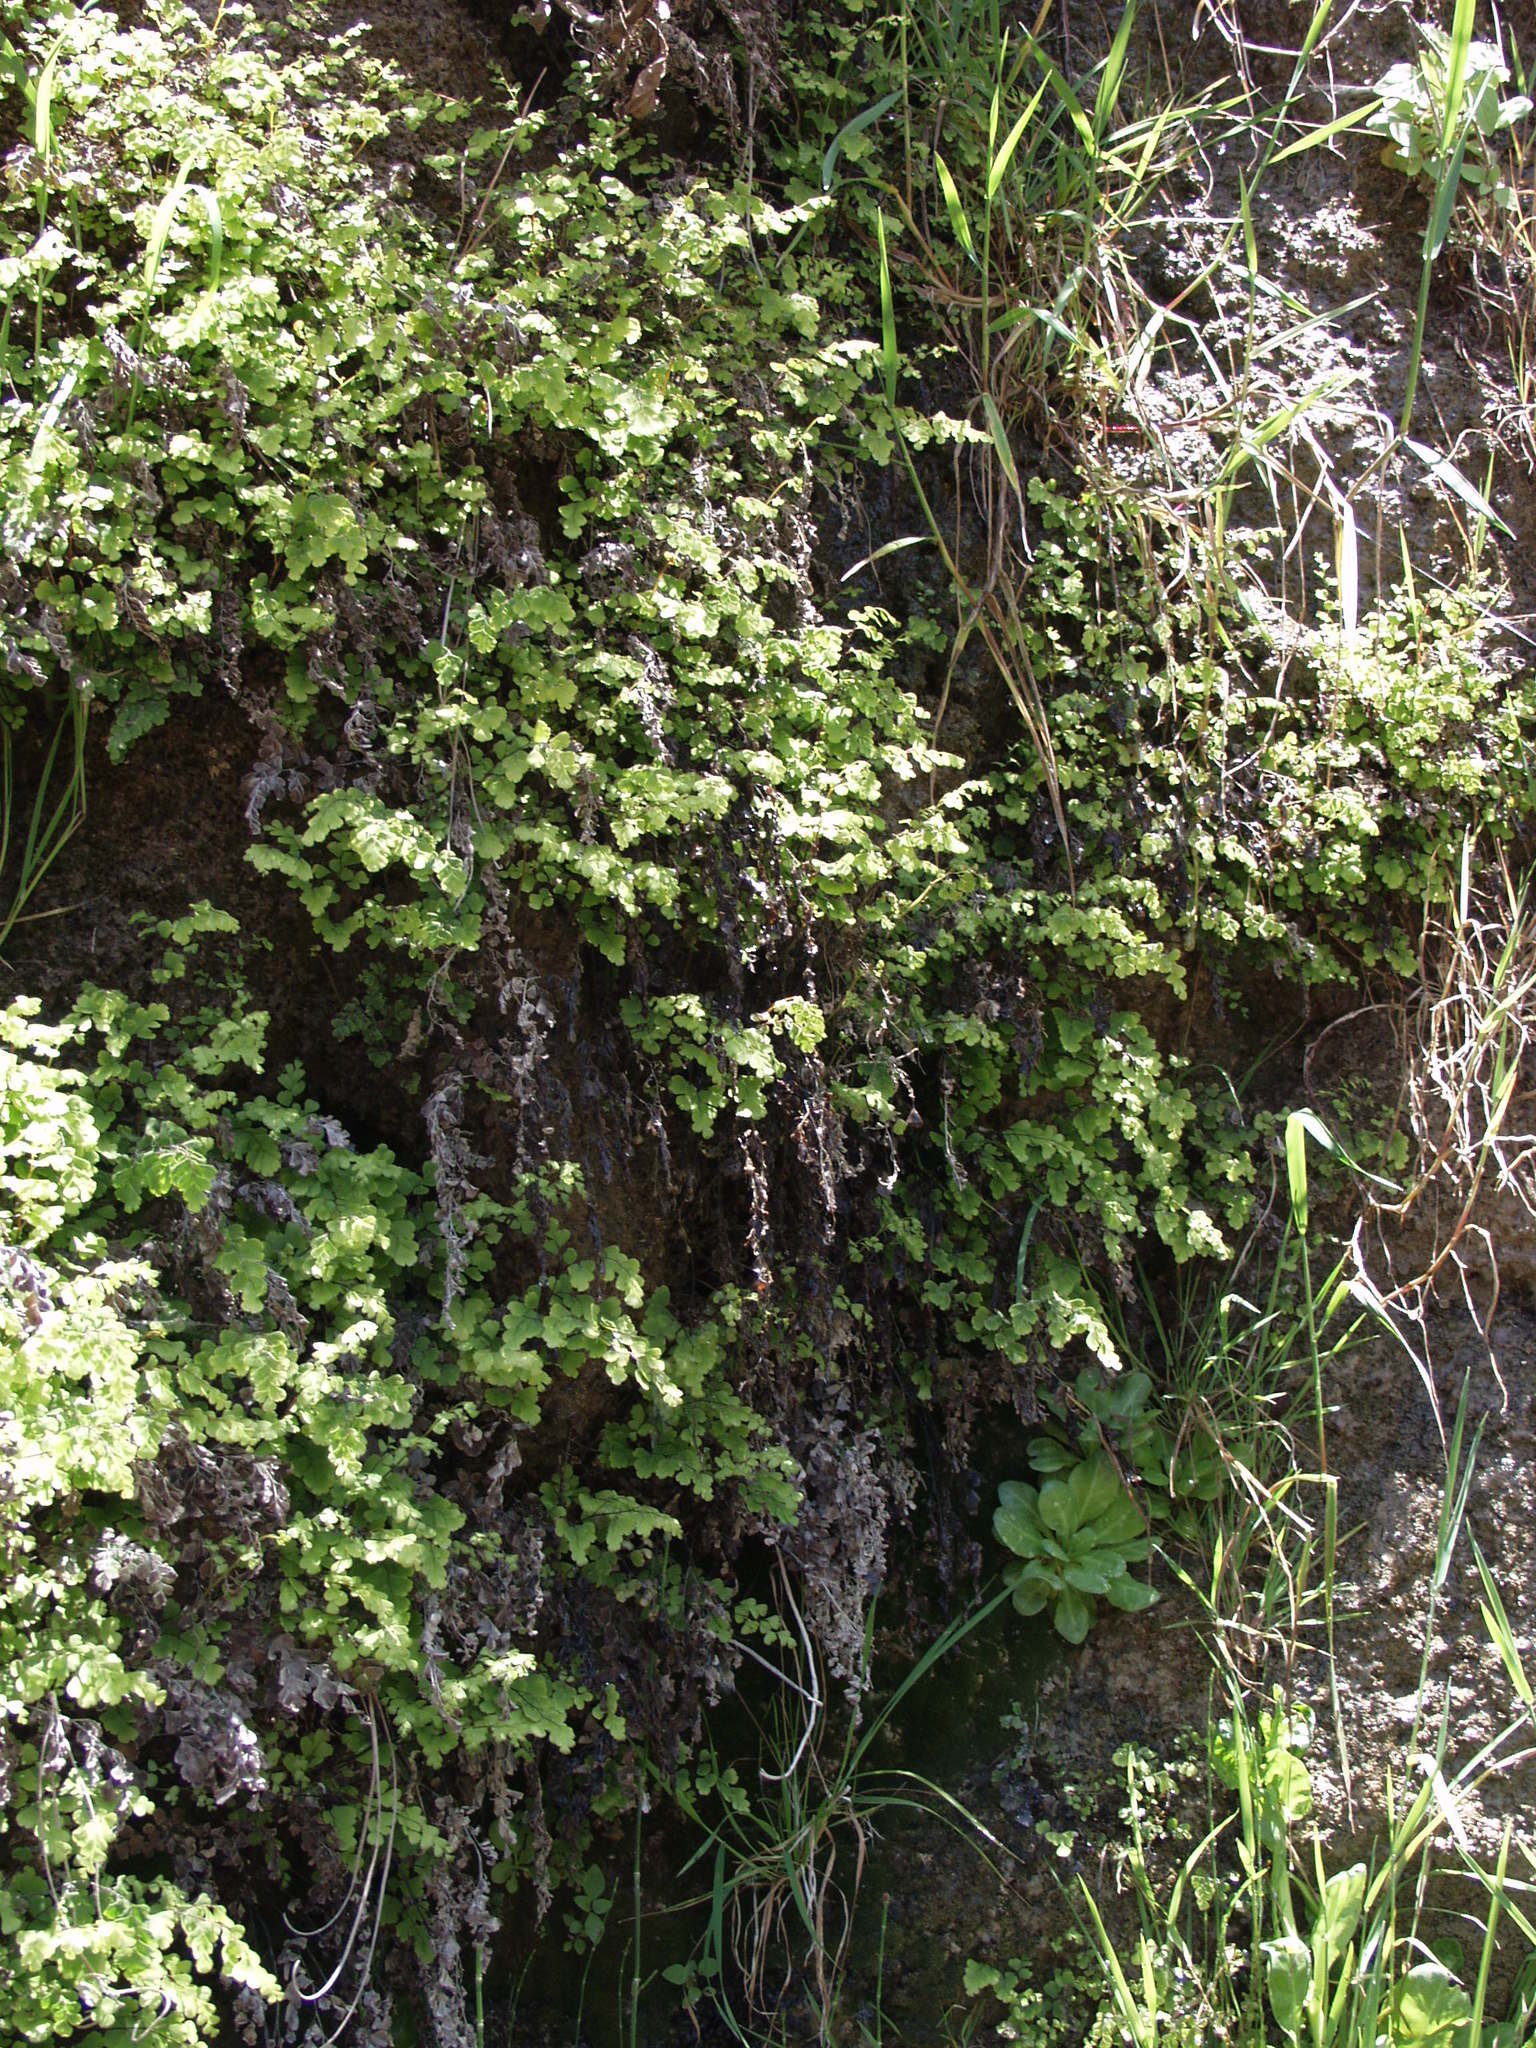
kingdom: Plantae
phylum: Tracheophyta
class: Polypodiopsida
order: Polypodiales
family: Pteridaceae
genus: Adiantum
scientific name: Adiantum capillus-veneris
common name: Maidenhair fern
